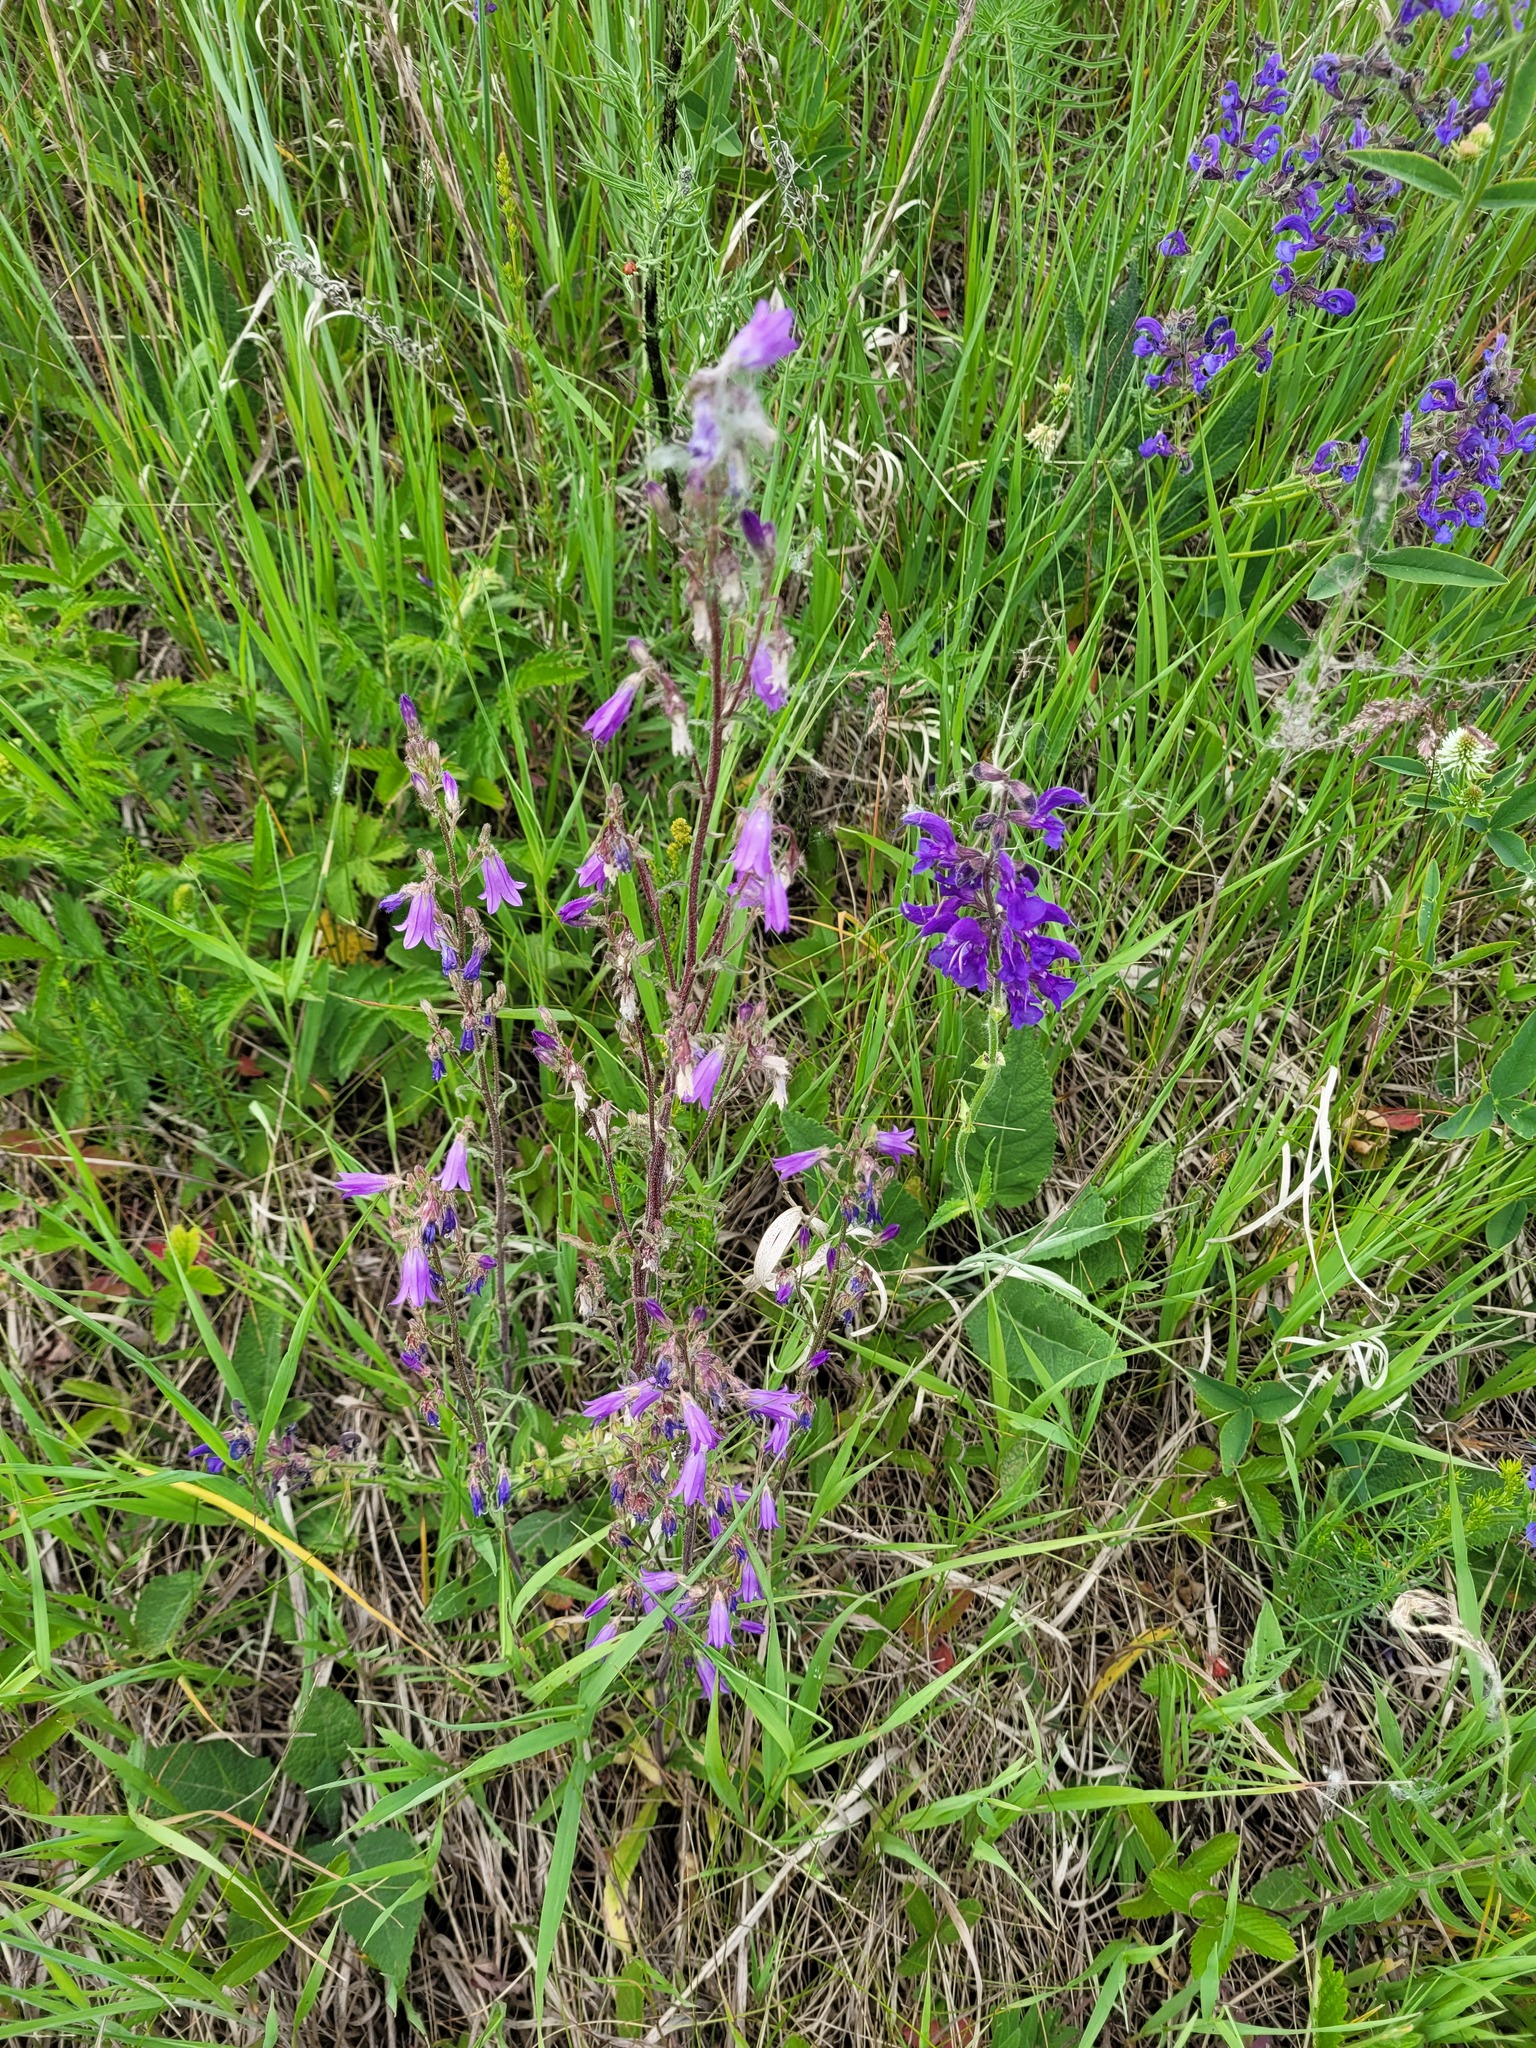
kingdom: Plantae
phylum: Tracheophyta
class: Magnoliopsida
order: Asterales
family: Campanulaceae
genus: Campanula
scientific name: Campanula sibirica
